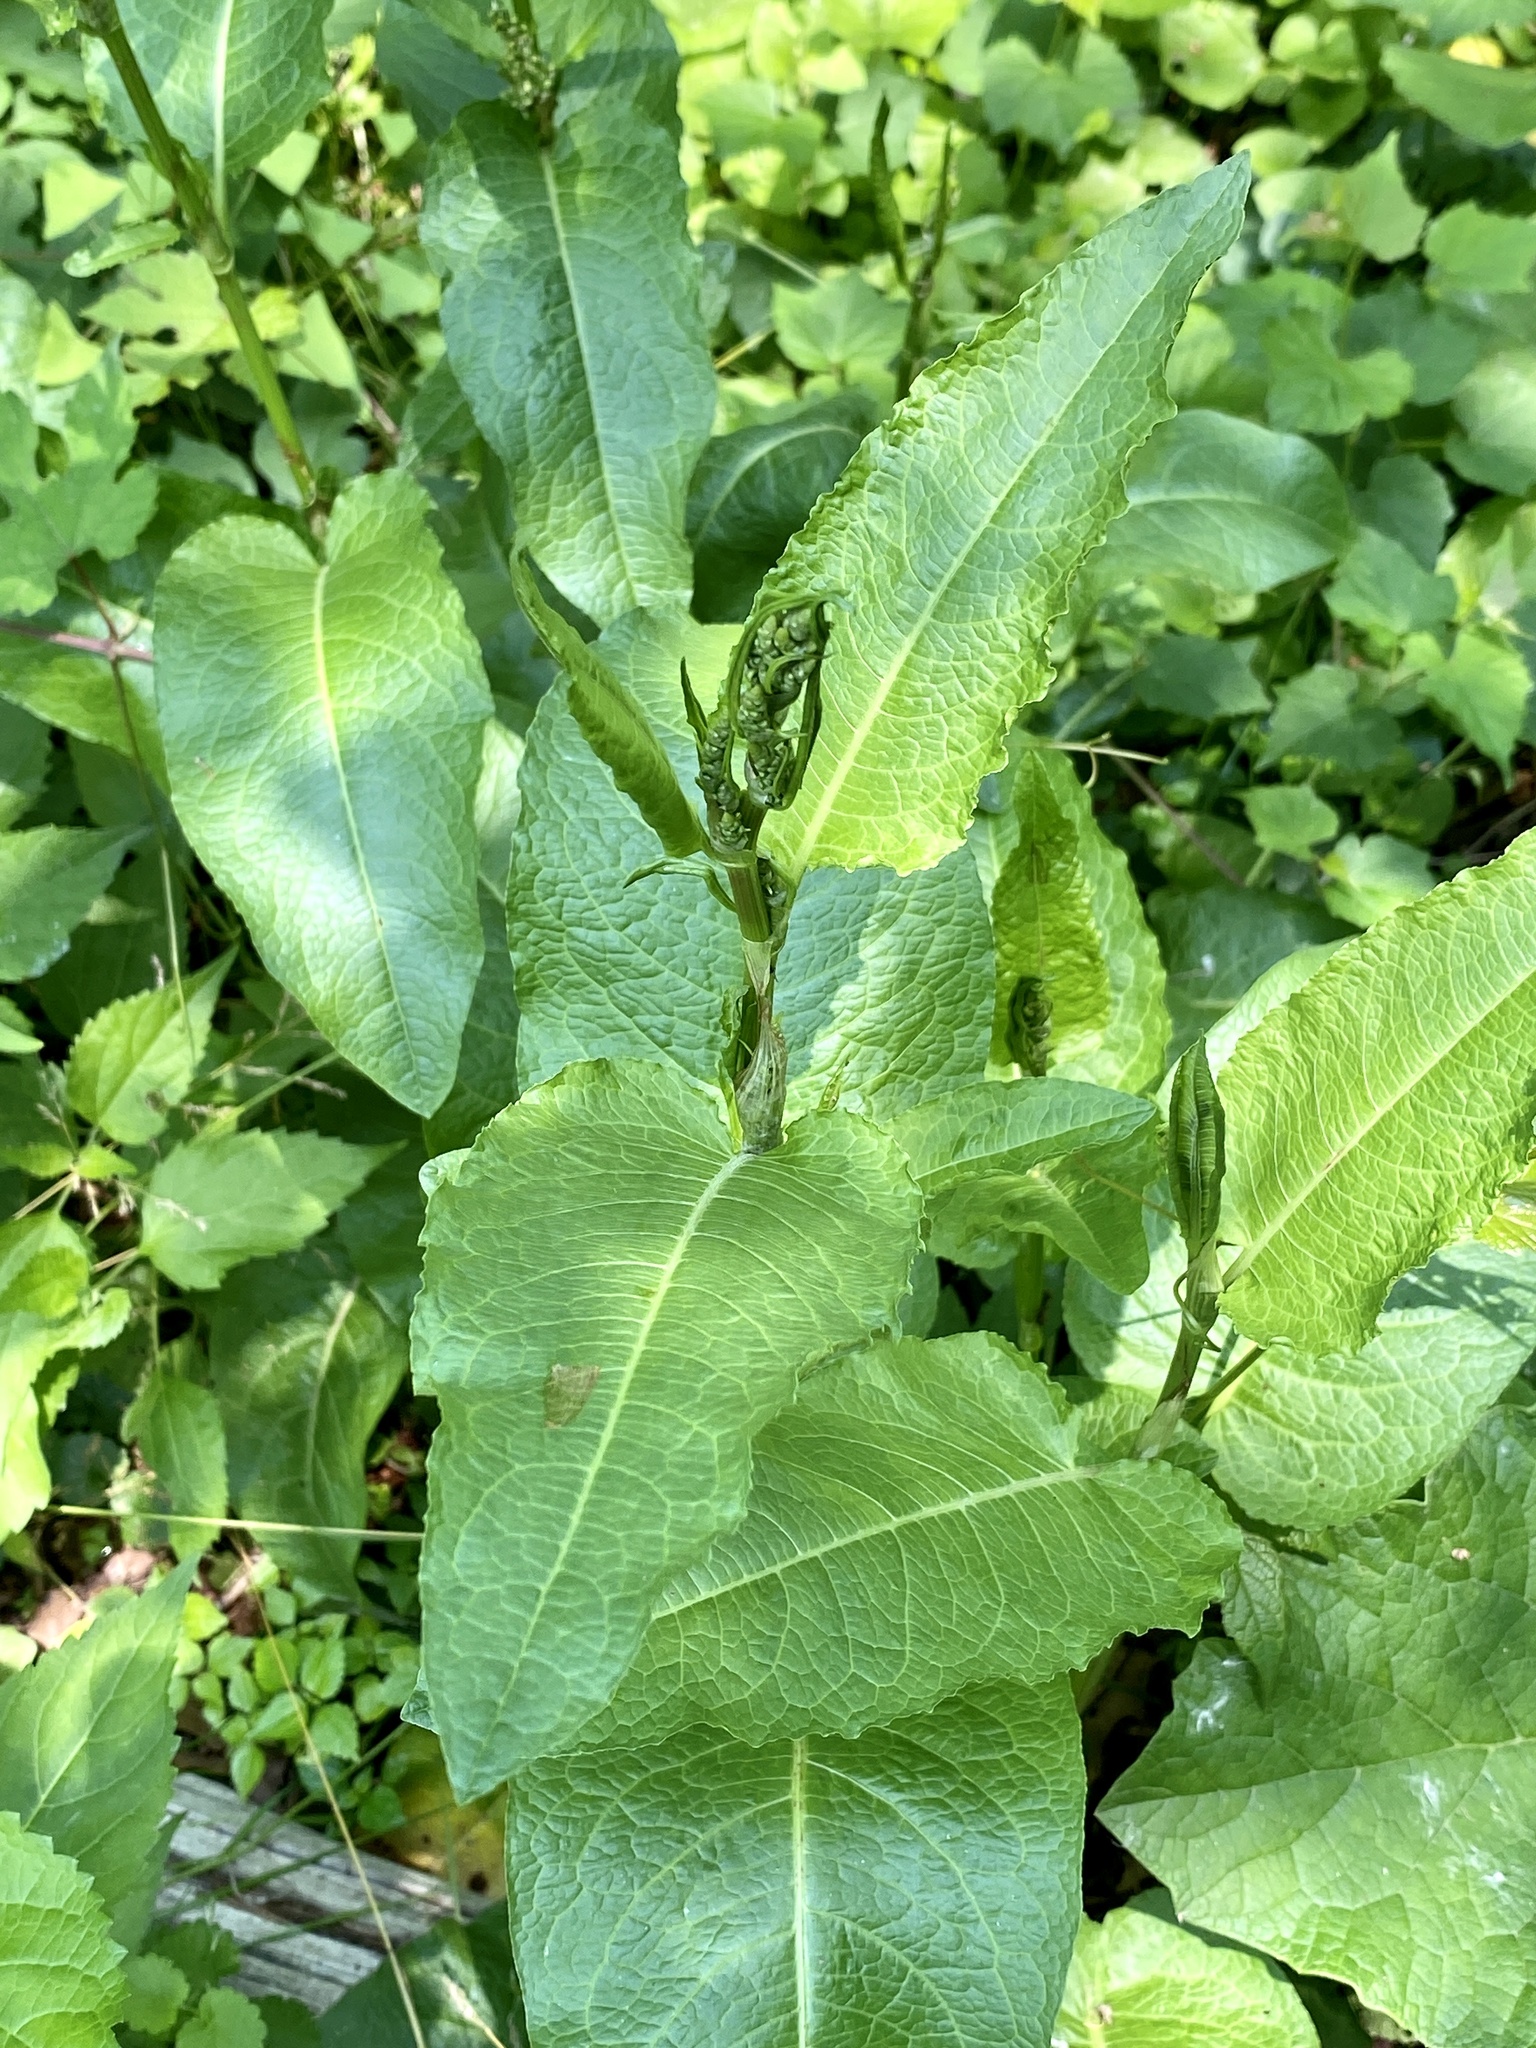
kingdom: Plantae
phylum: Tracheophyta
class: Magnoliopsida
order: Caryophyllales
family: Polygonaceae
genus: Rumex
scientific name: Rumex obtusifolius
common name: Bitter dock
